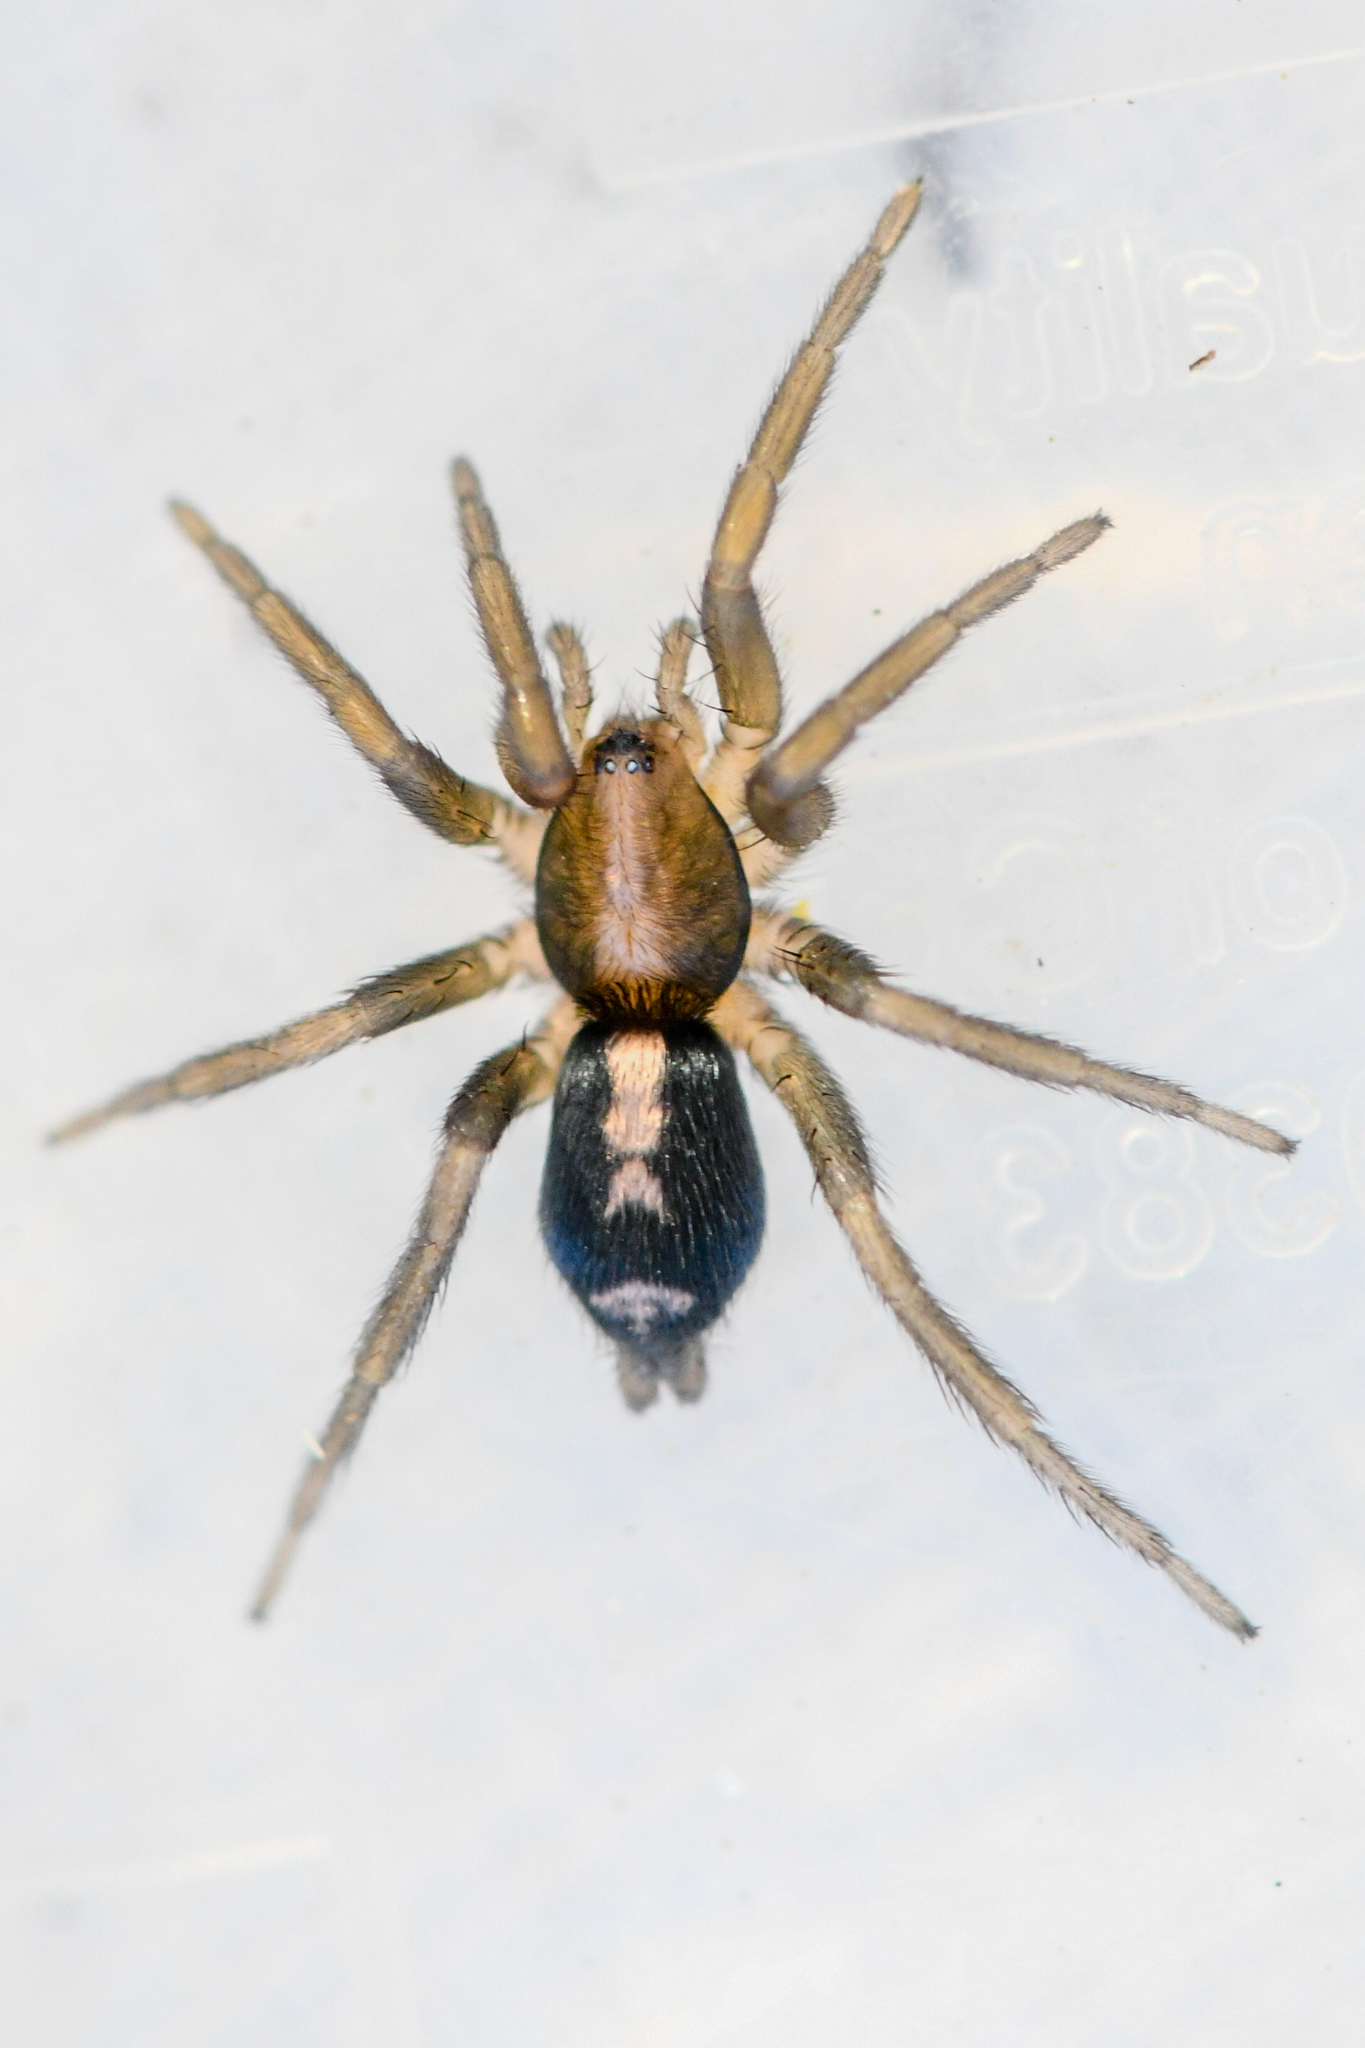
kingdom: Animalia
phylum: Arthropoda
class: Arachnida
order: Araneae
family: Gnaphosidae
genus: Herpyllus
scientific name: Herpyllus propinquus
